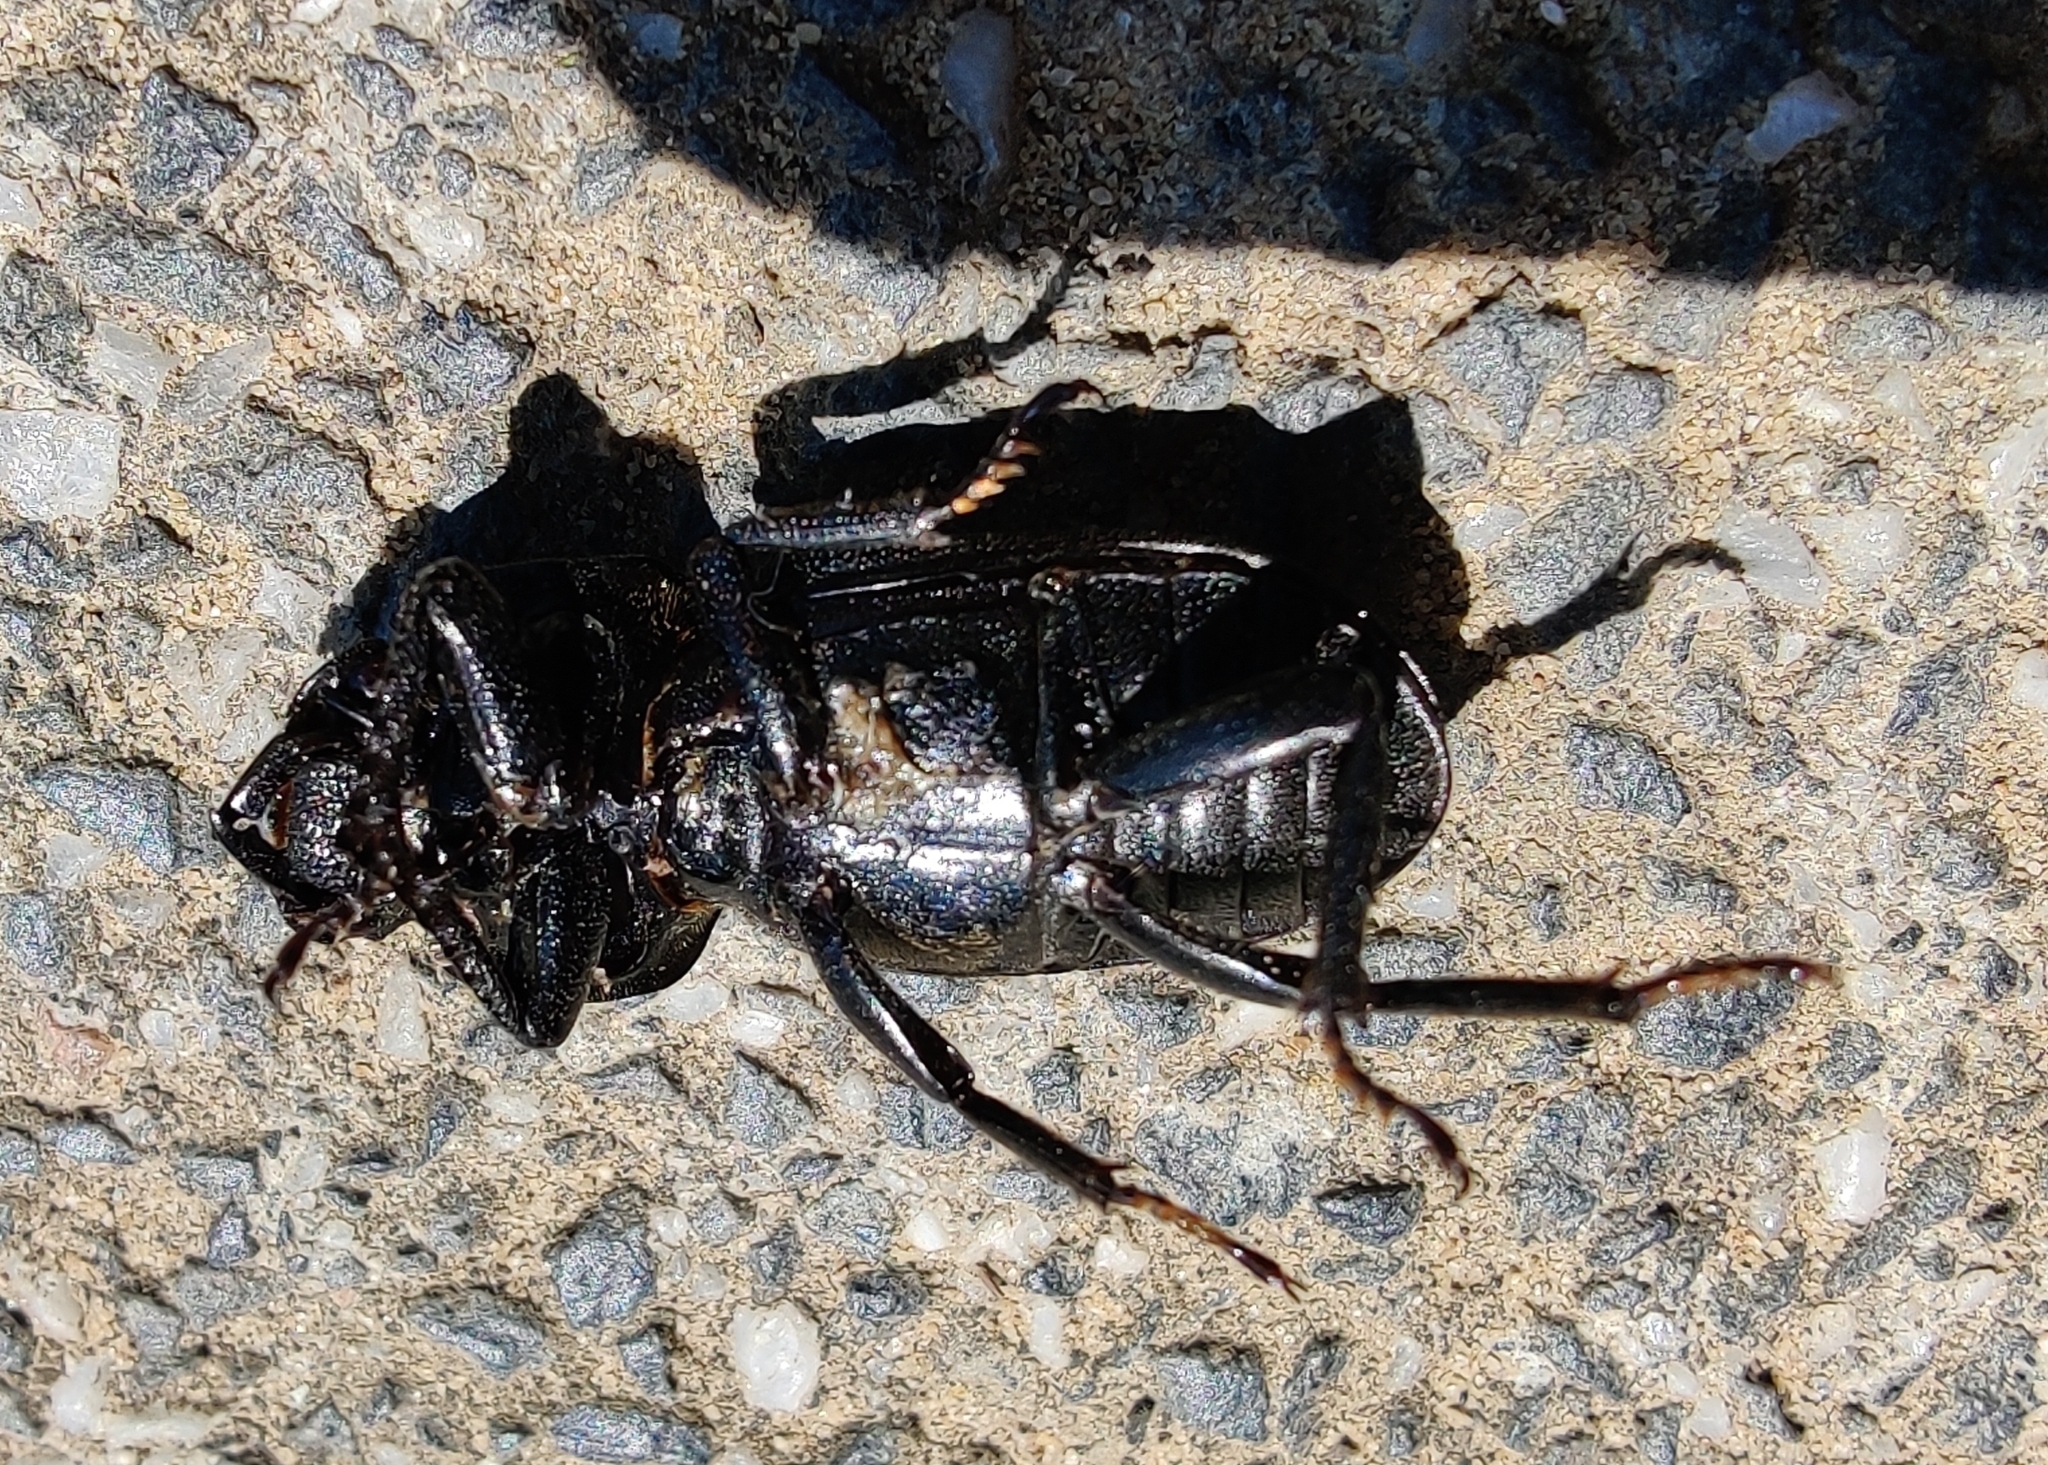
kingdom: Animalia
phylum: Arthropoda
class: Insecta
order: Coleoptera
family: Lucanidae
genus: Dorcus
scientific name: Dorcus parallelipipedus
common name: Lesser stag beetle
